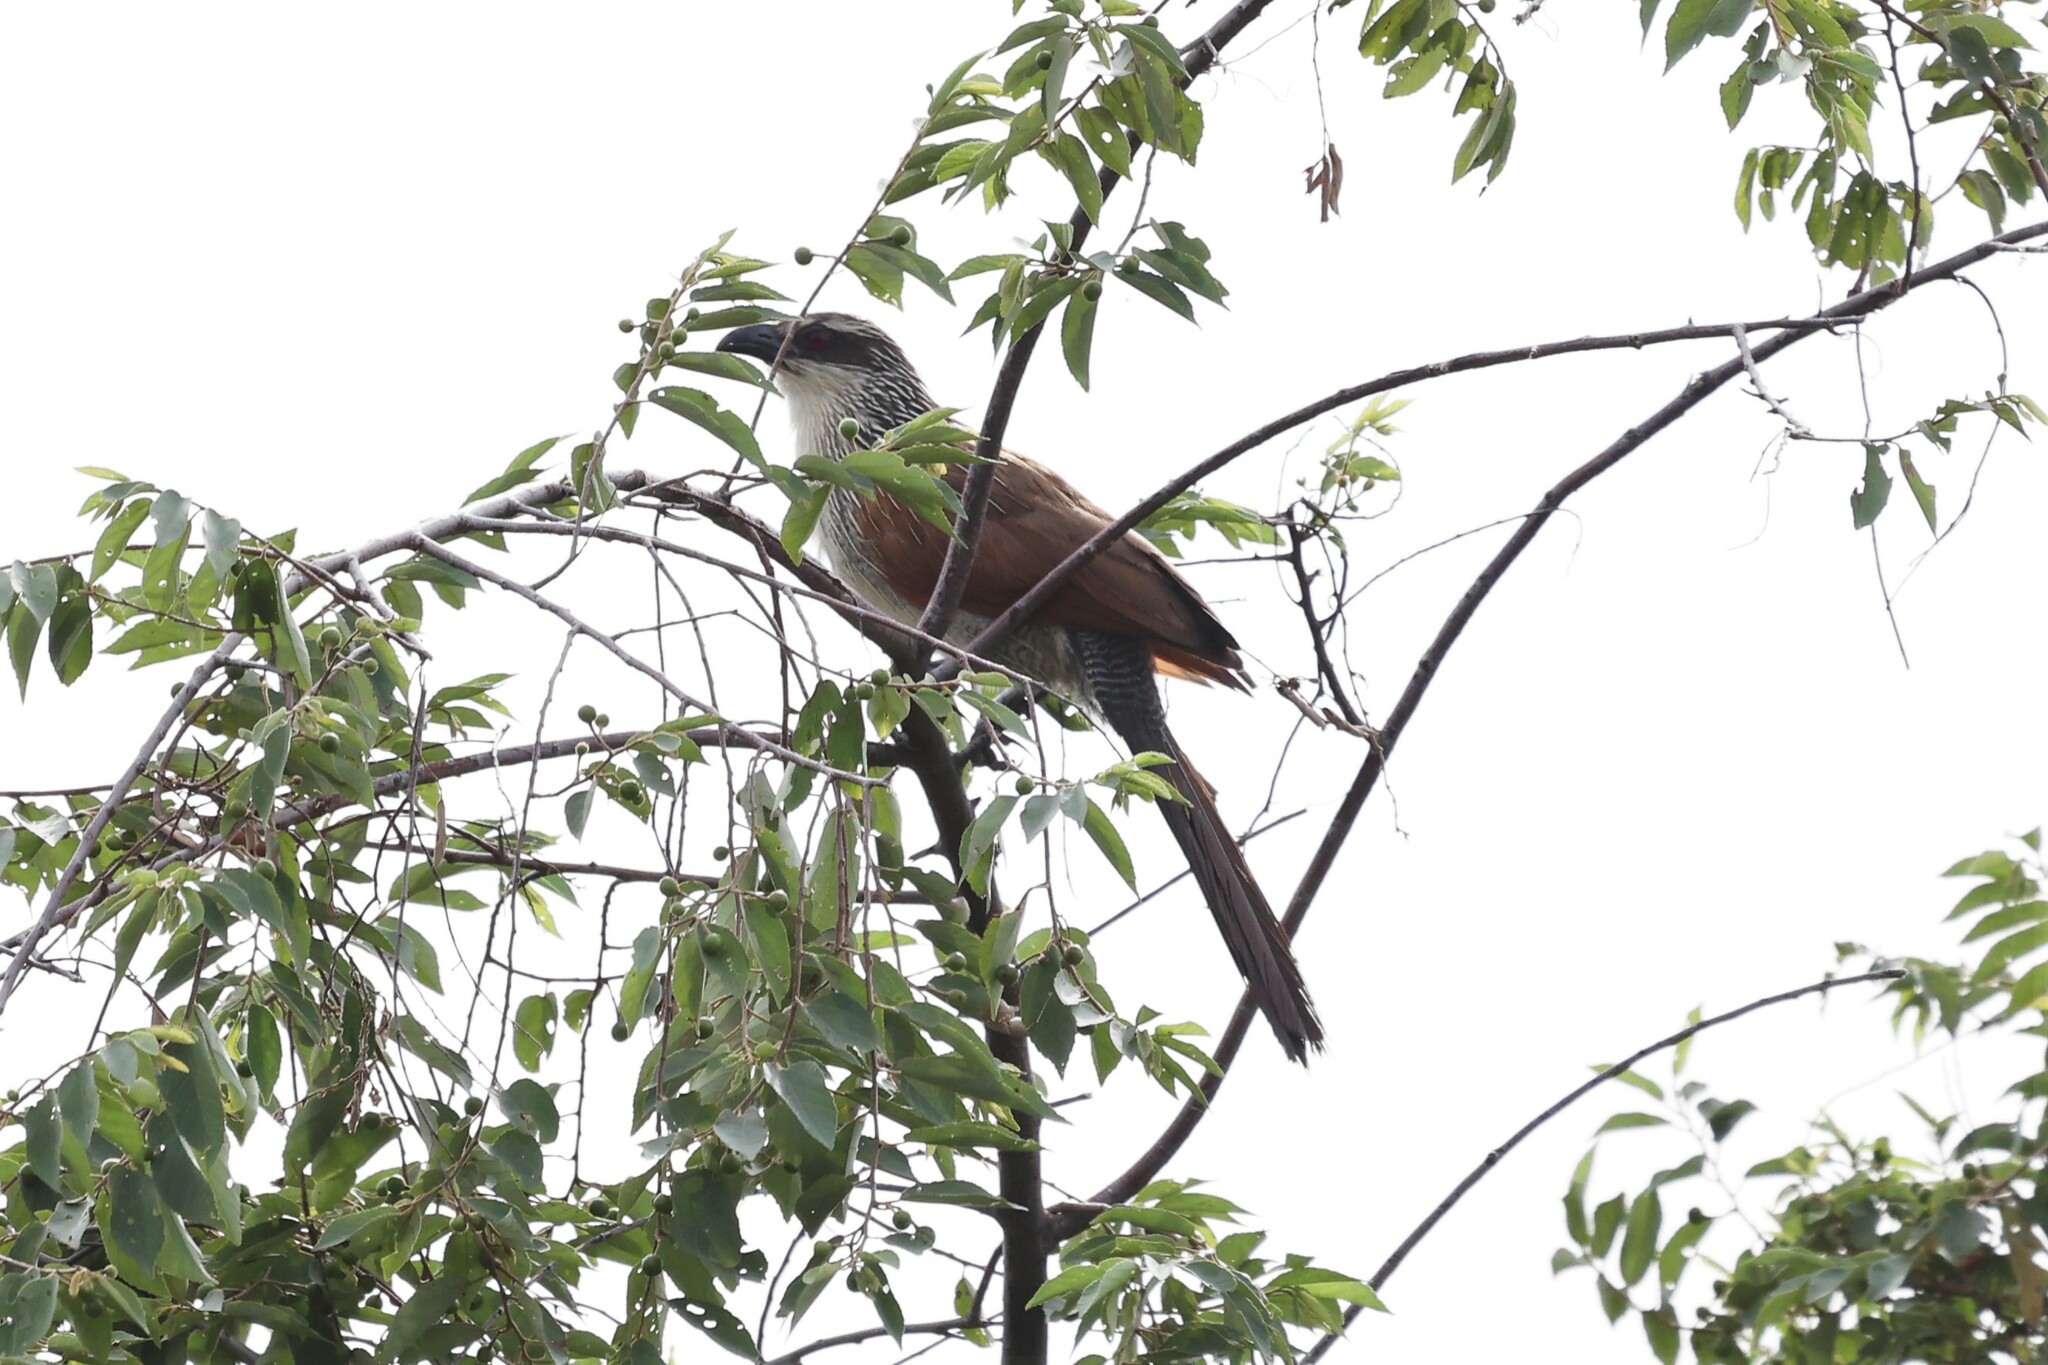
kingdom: Animalia
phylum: Chordata
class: Aves
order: Cuculiformes
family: Cuculidae
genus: Centropus
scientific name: Centropus superciliosus
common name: White-browed coucal
